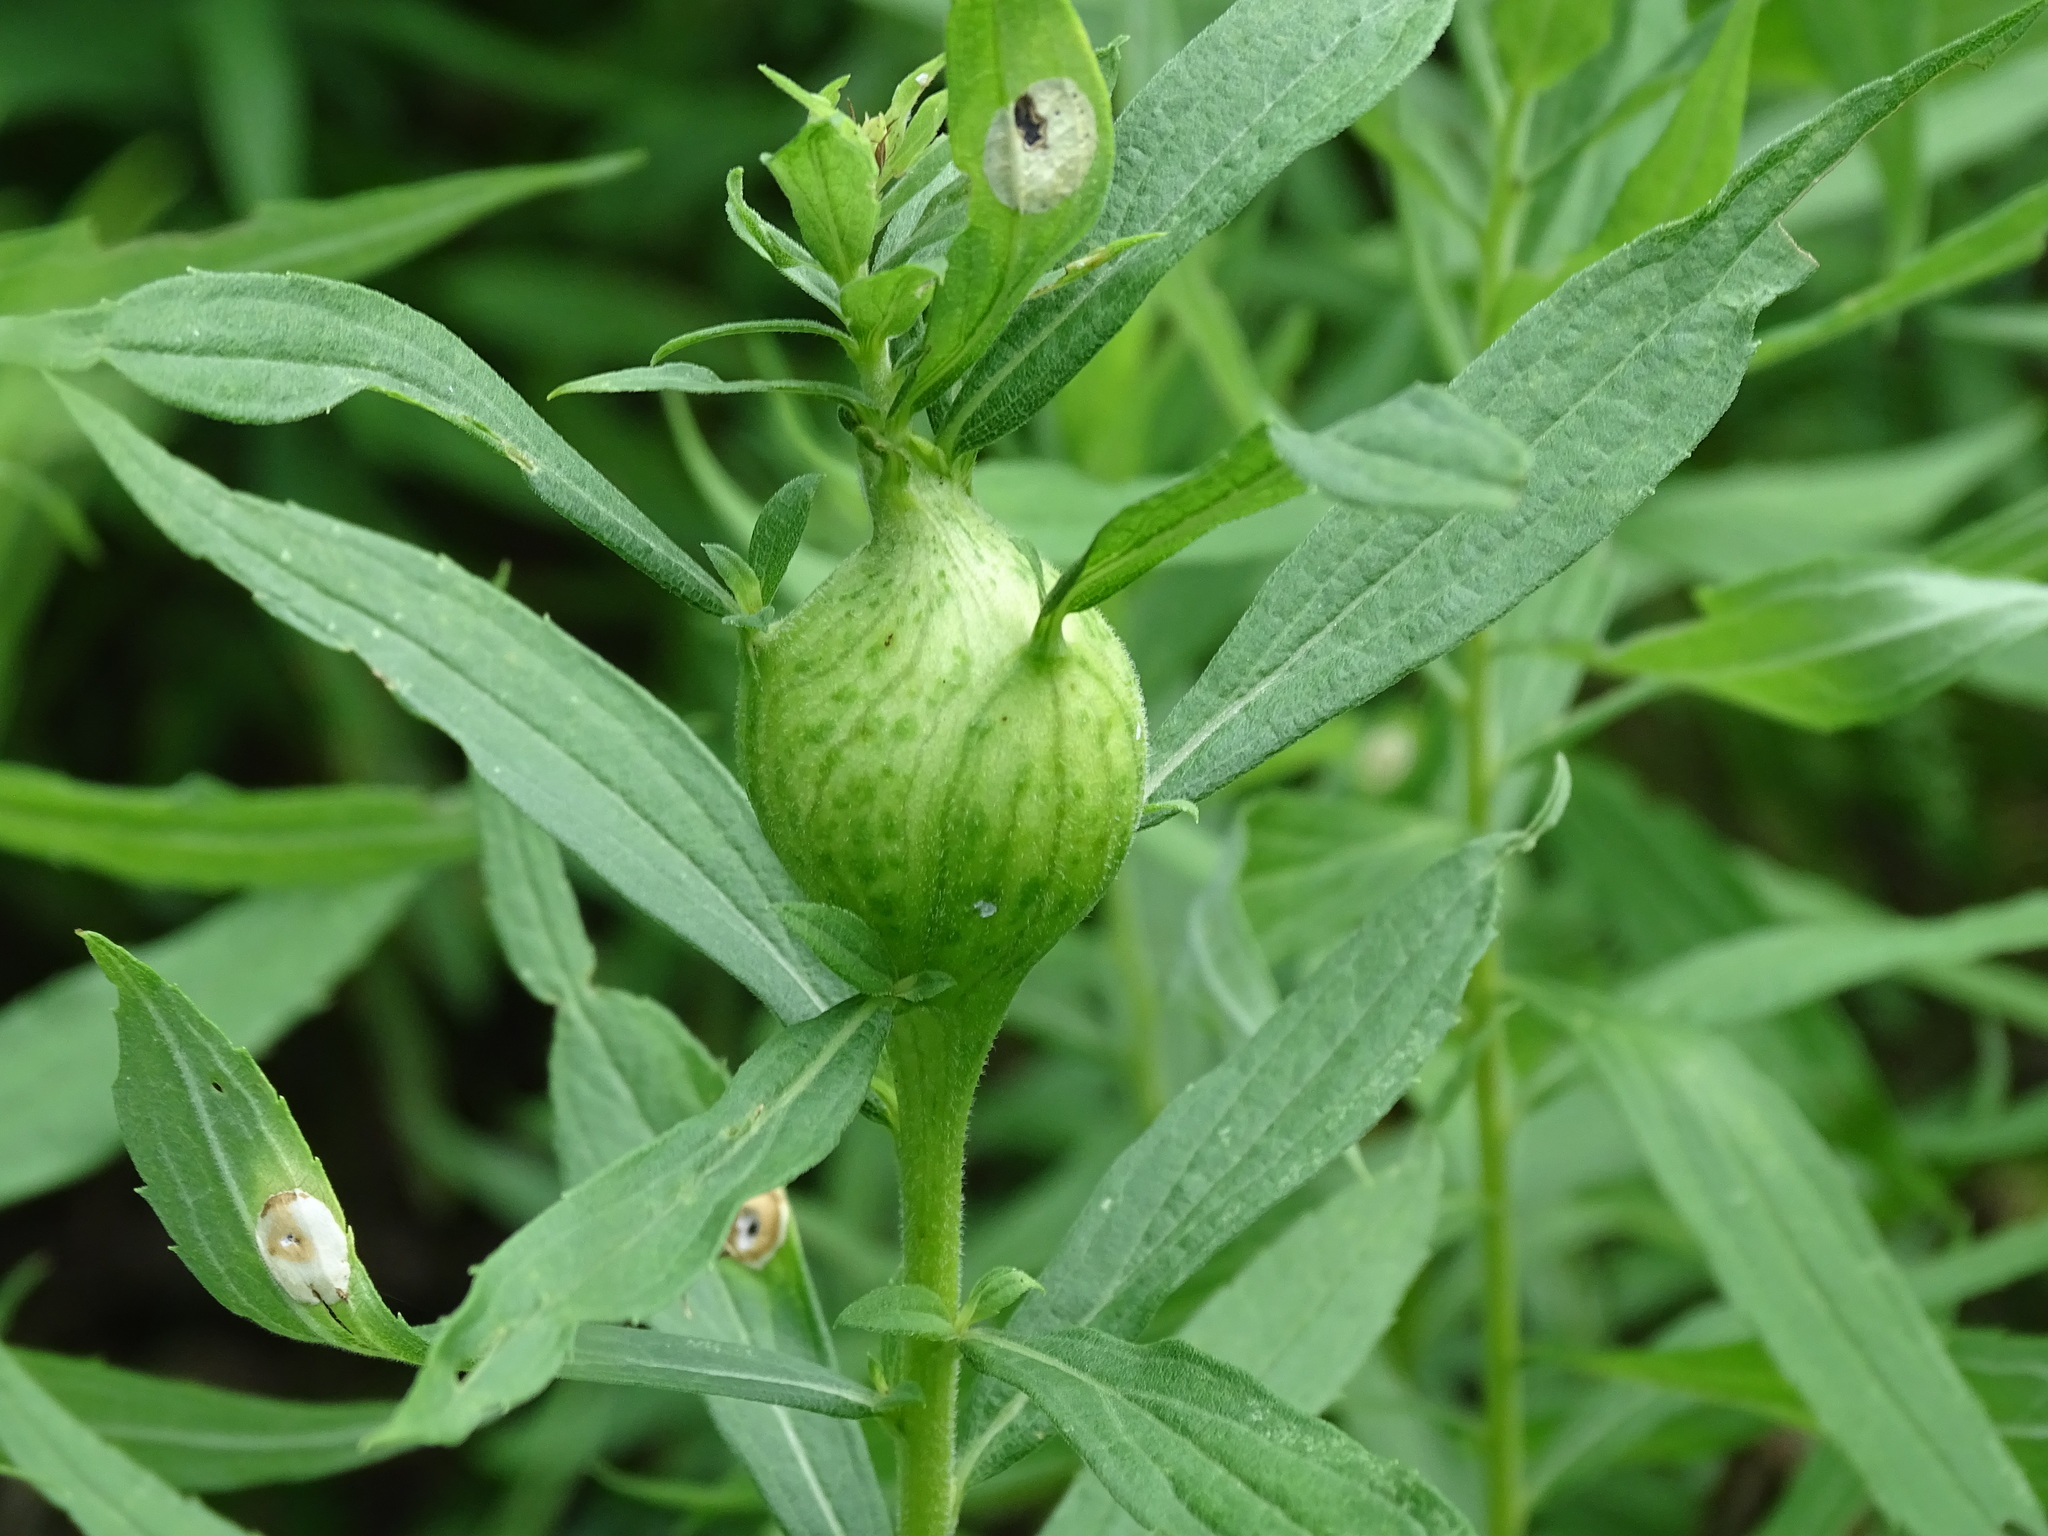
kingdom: Animalia
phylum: Arthropoda
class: Insecta
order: Diptera
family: Tephritidae
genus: Eurosta
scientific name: Eurosta solidaginis
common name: Goldenrod gall fly
